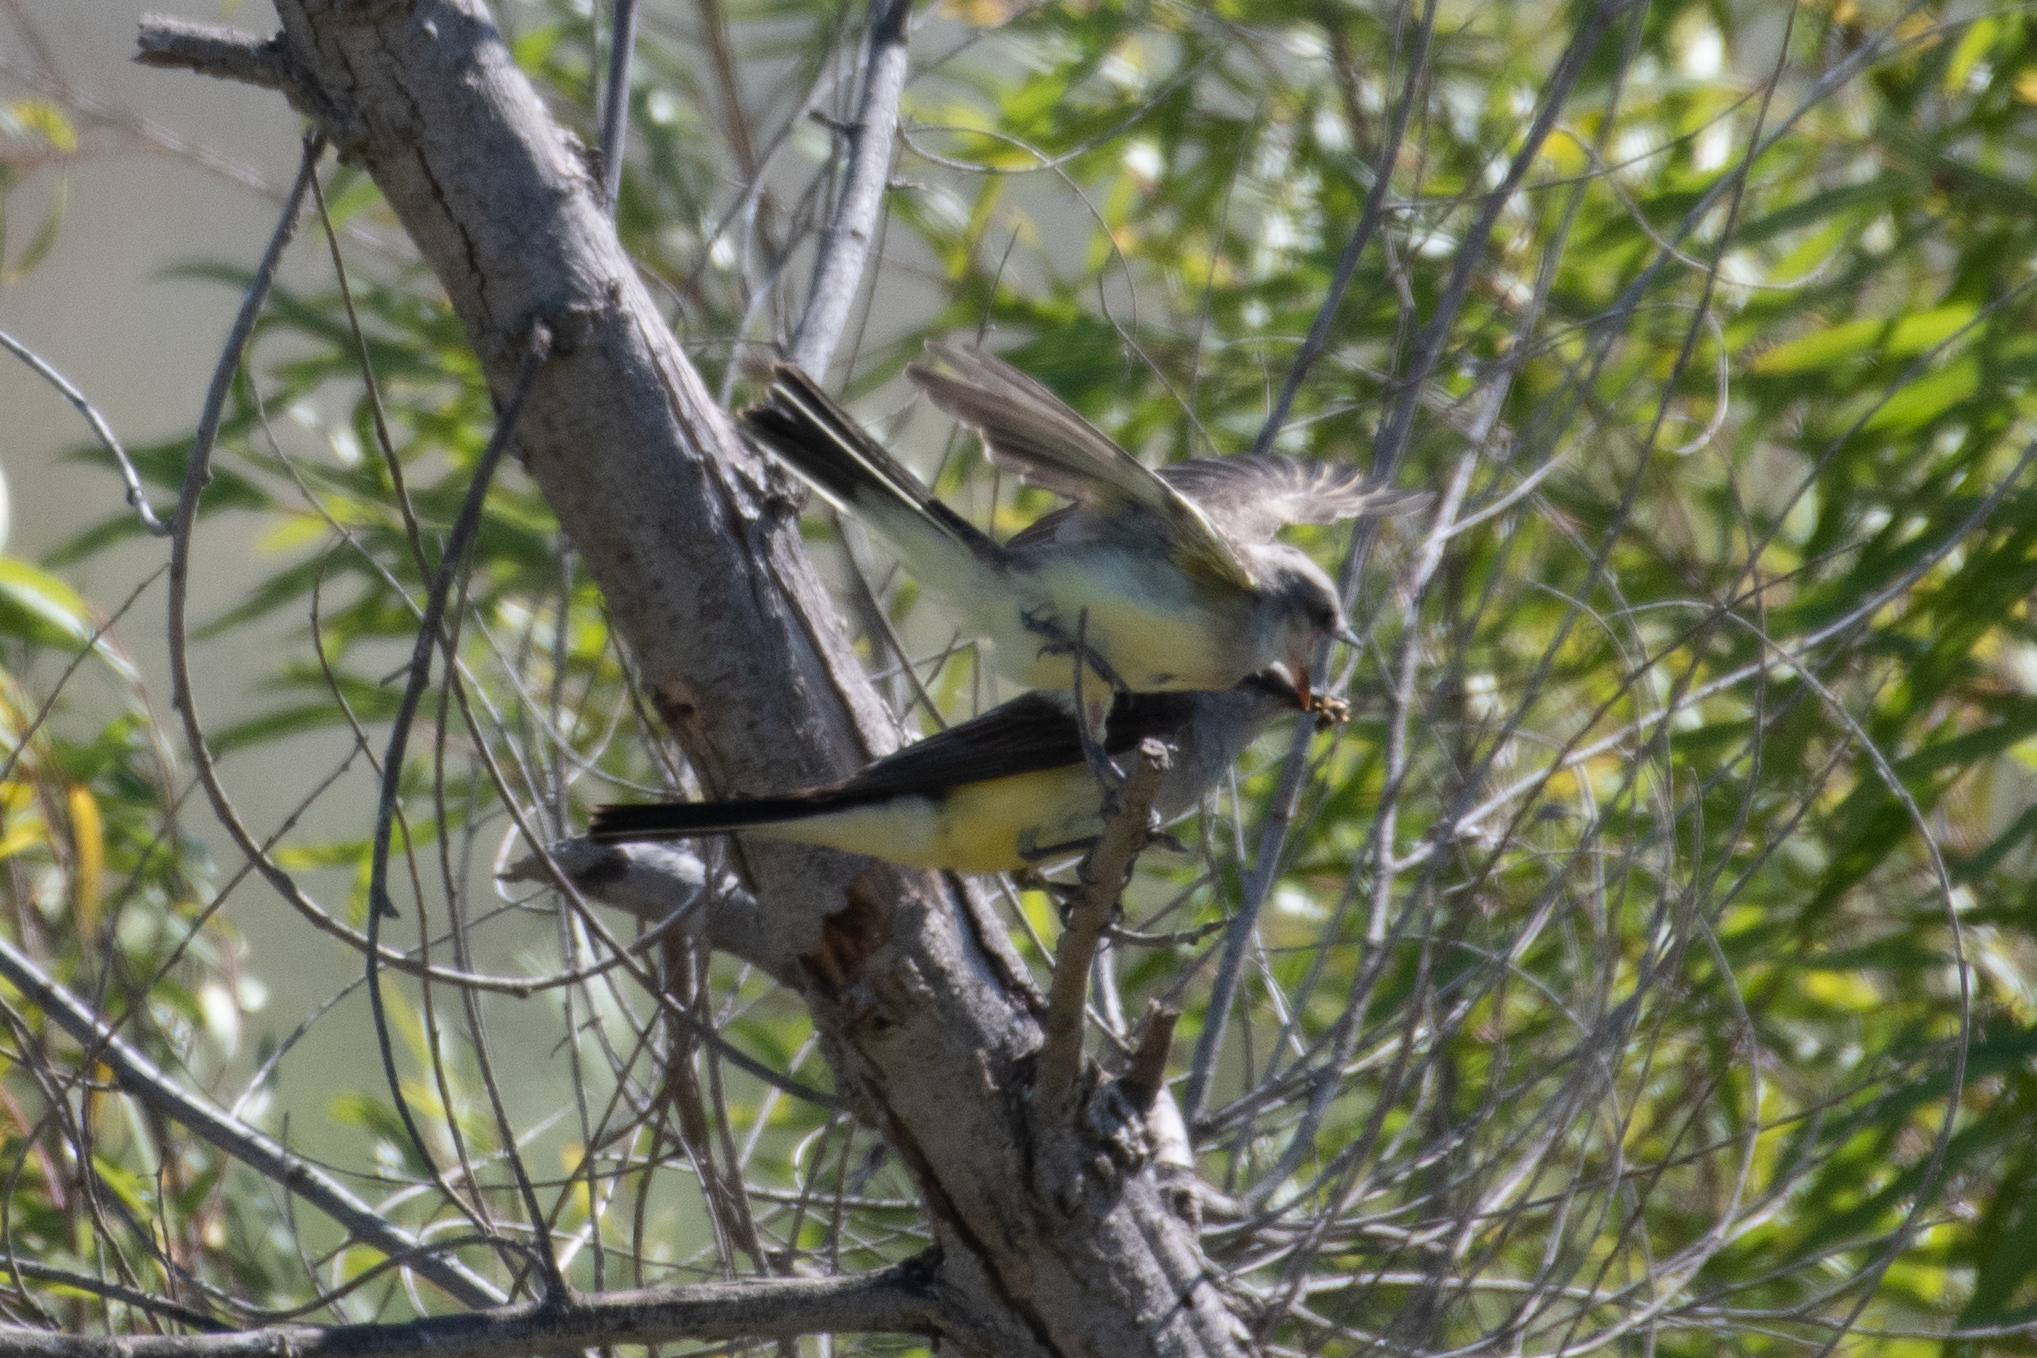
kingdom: Animalia
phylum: Chordata
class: Aves
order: Passeriformes
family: Tyrannidae
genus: Tyrannus
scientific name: Tyrannus verticalis
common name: Western kingbird
